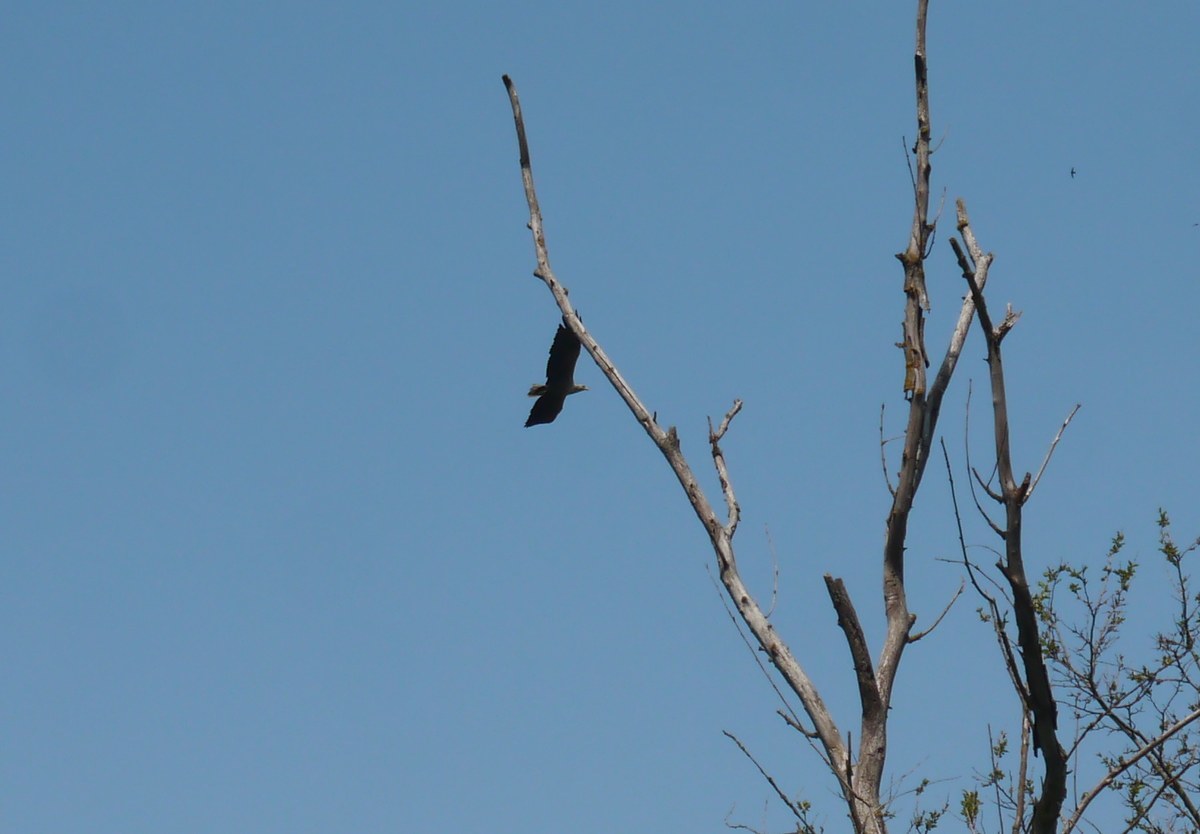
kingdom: Animalia
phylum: Chordata
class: Aves
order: Accipitriformes
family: Accipitridae
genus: Haliaeetus
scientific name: Haliaeetus albicilla
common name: White-tailed eagle
